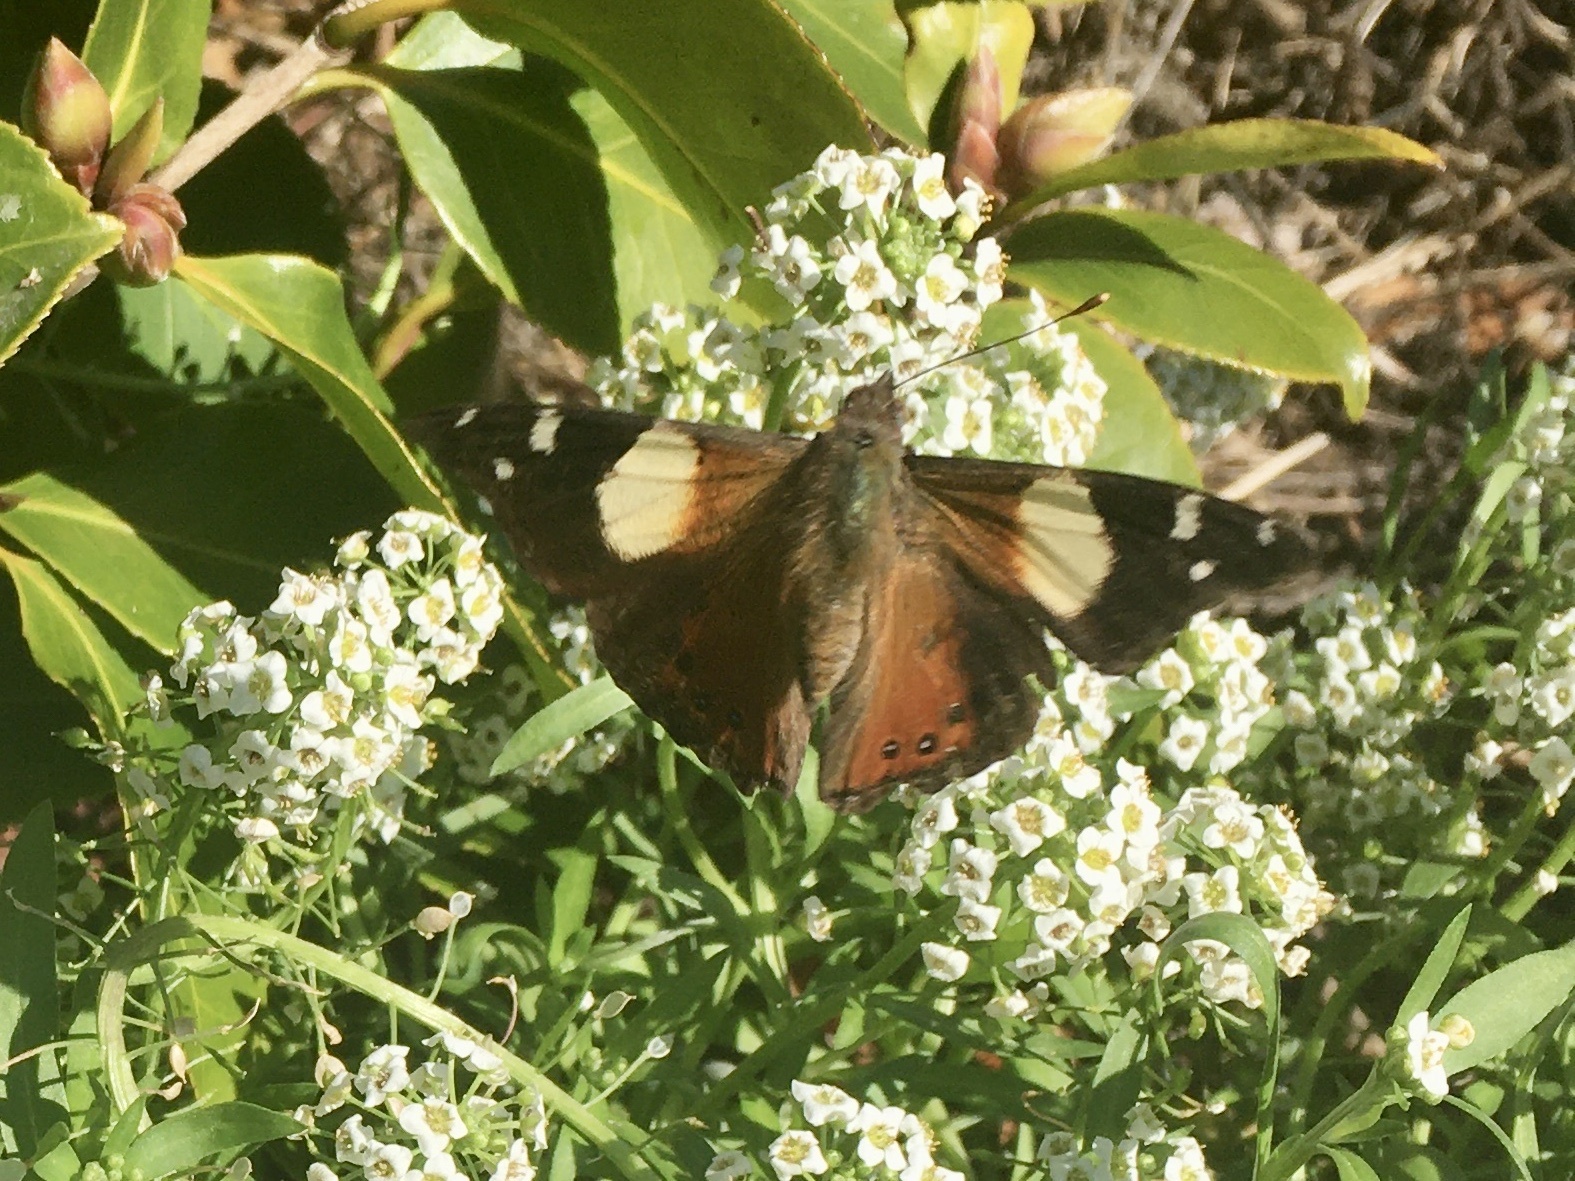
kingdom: Animalia
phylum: Arthropoda
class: Insecta
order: Lepidoptera
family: Nymphalidae
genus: Vanessa
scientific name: Vanessa itea
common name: Yellow admiral
